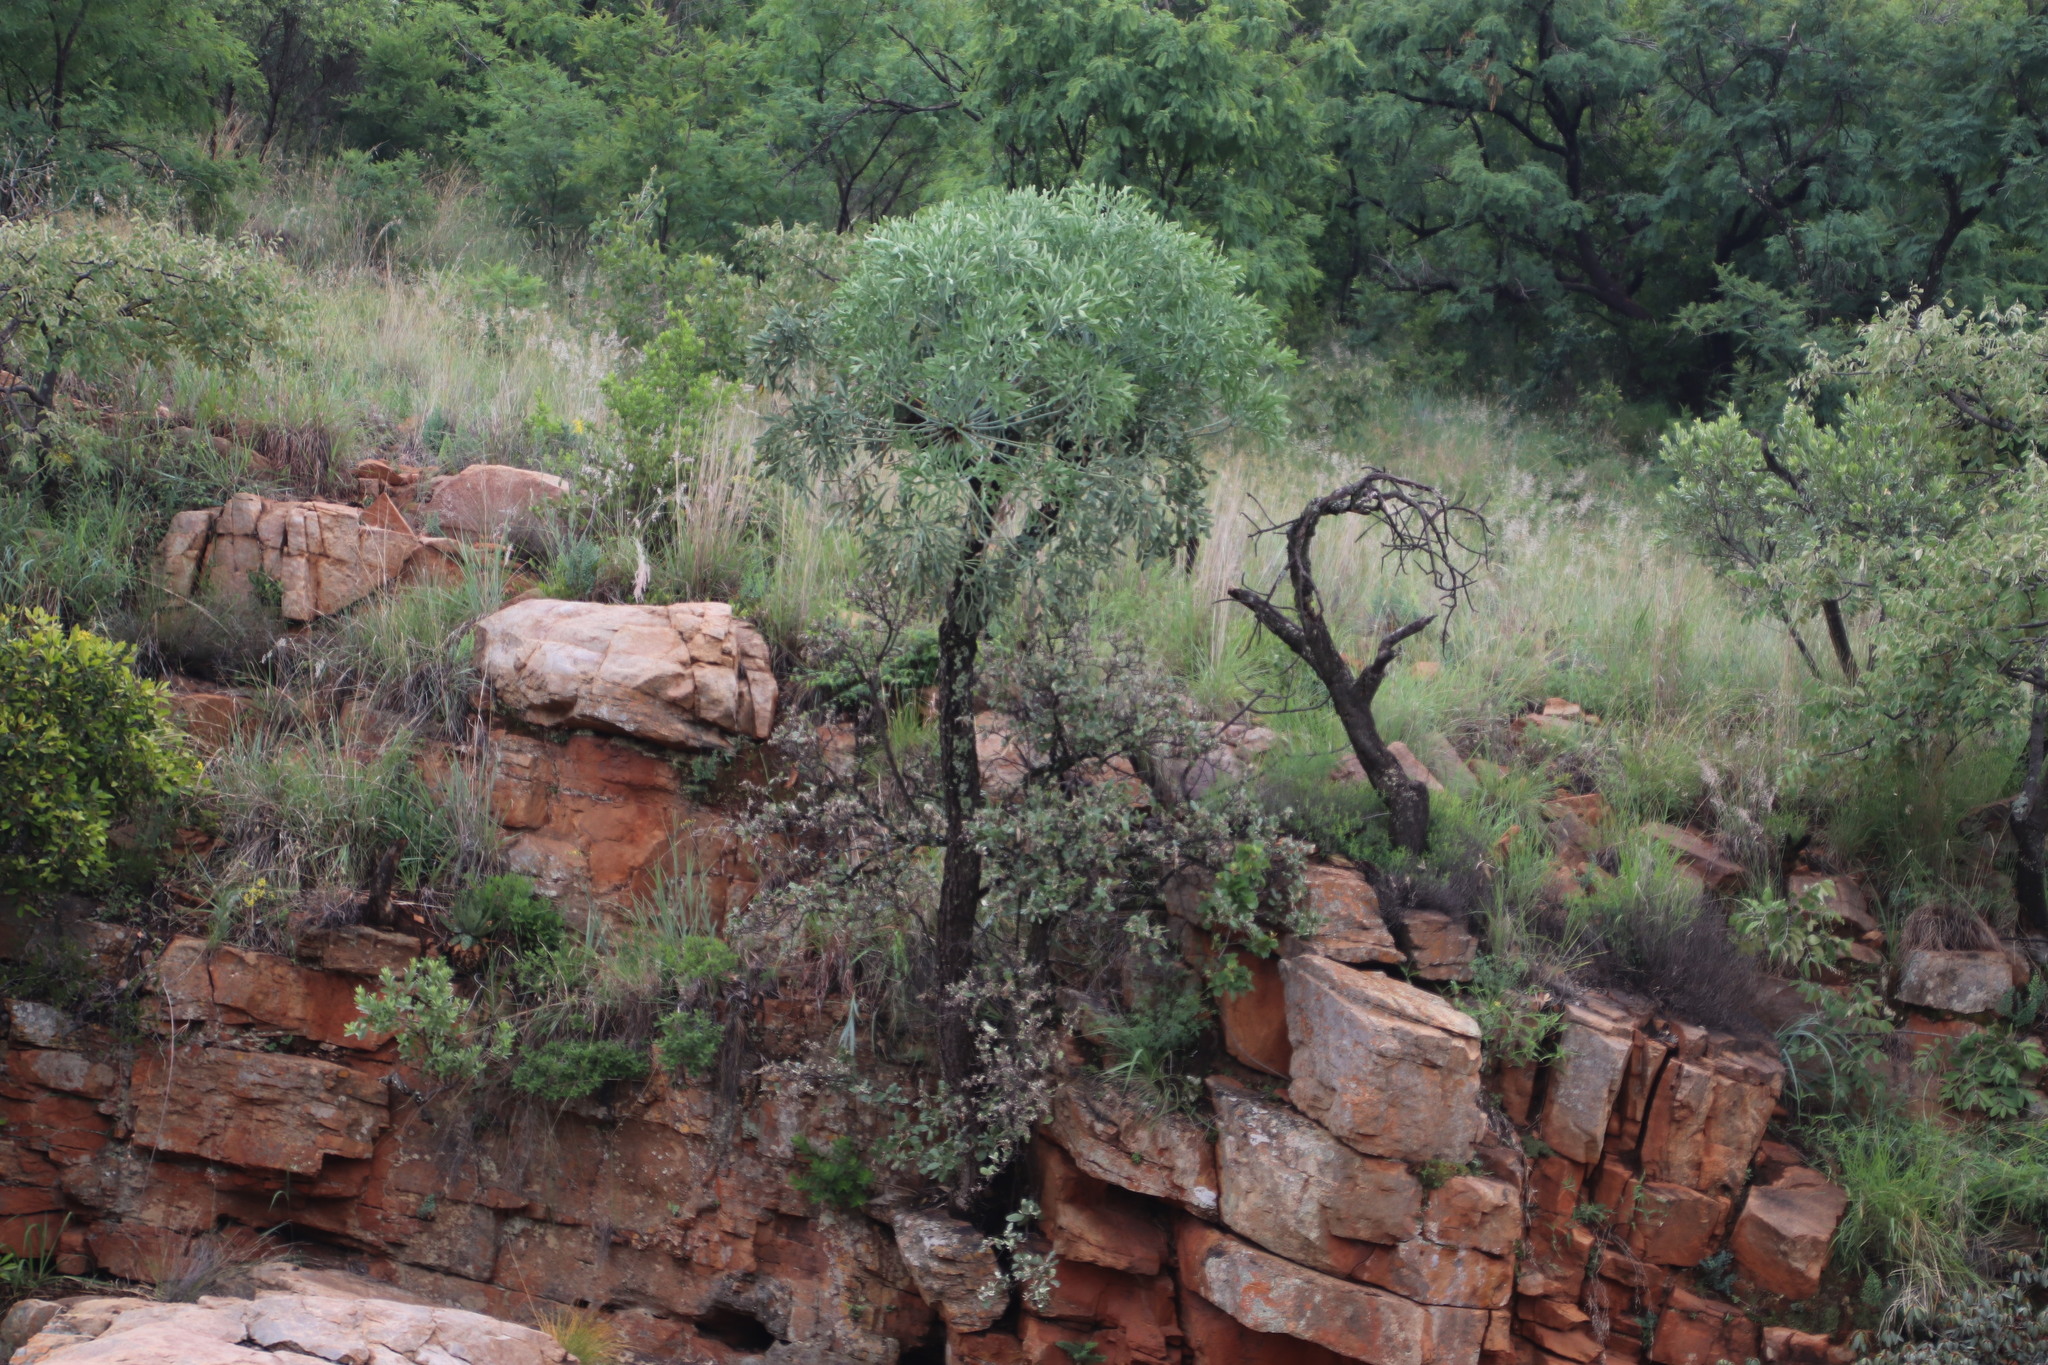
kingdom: Plantae
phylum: Tracheophyta
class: Magnoliopsida
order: Apiales
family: Araliaceae
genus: Cussonia
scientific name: Cussonia paniculata
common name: Cabbagetree
